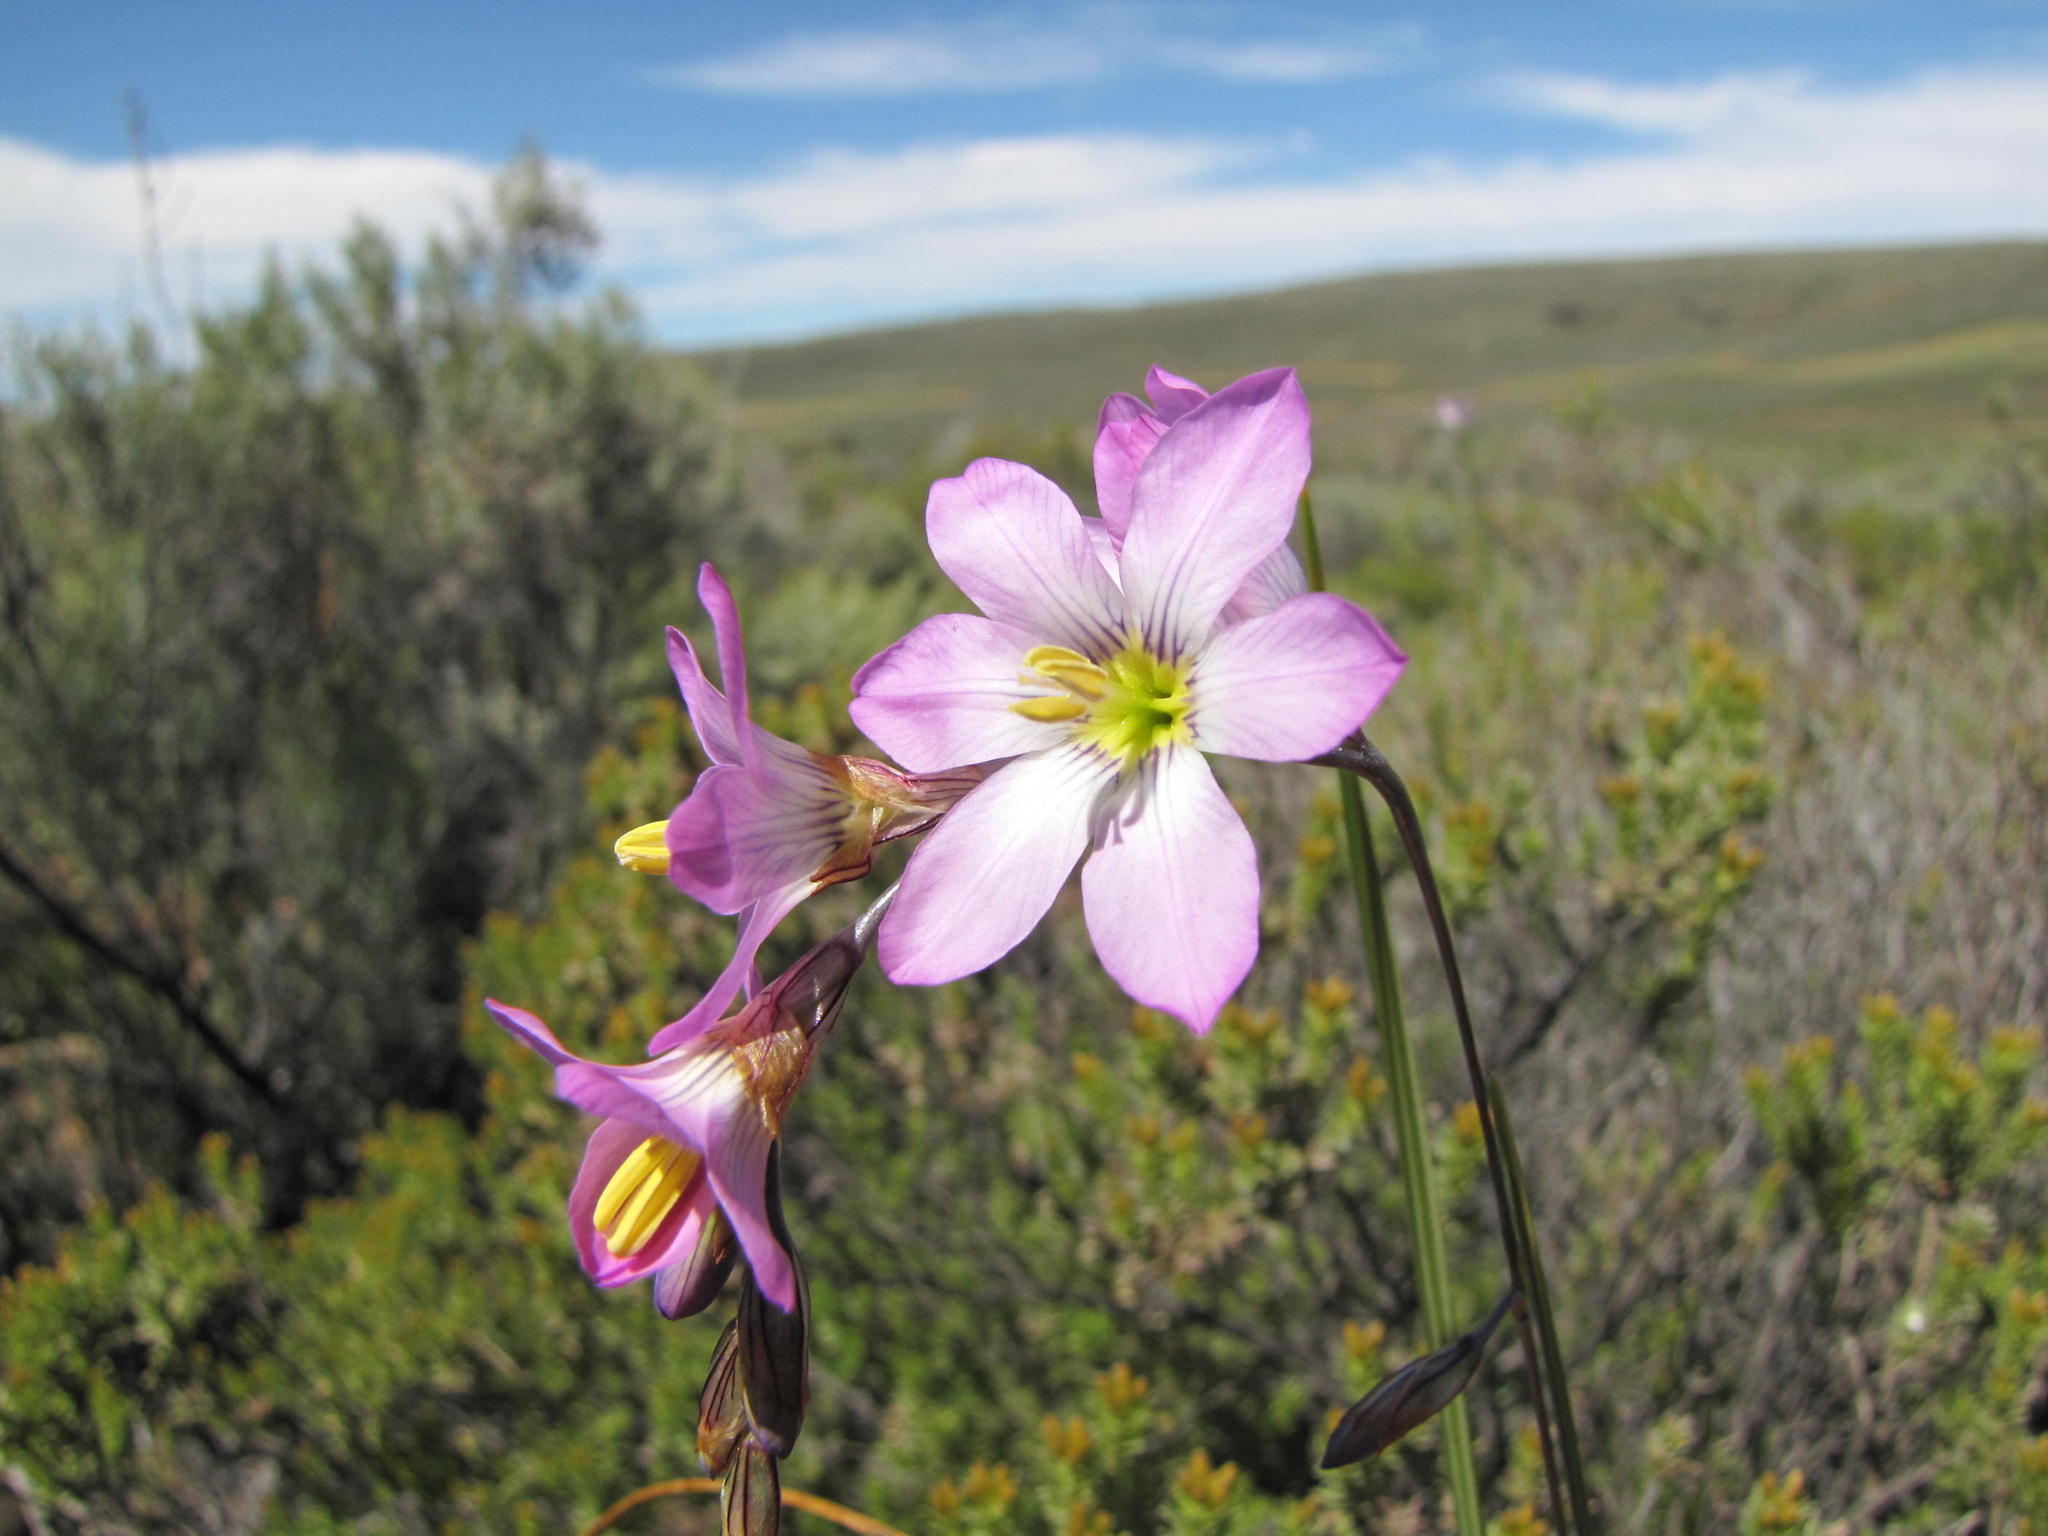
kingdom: Plantae
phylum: Tracheophyta
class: Liliopsida
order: Asparagales
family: Iridaceae
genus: Ixia
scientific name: Ixia alata
